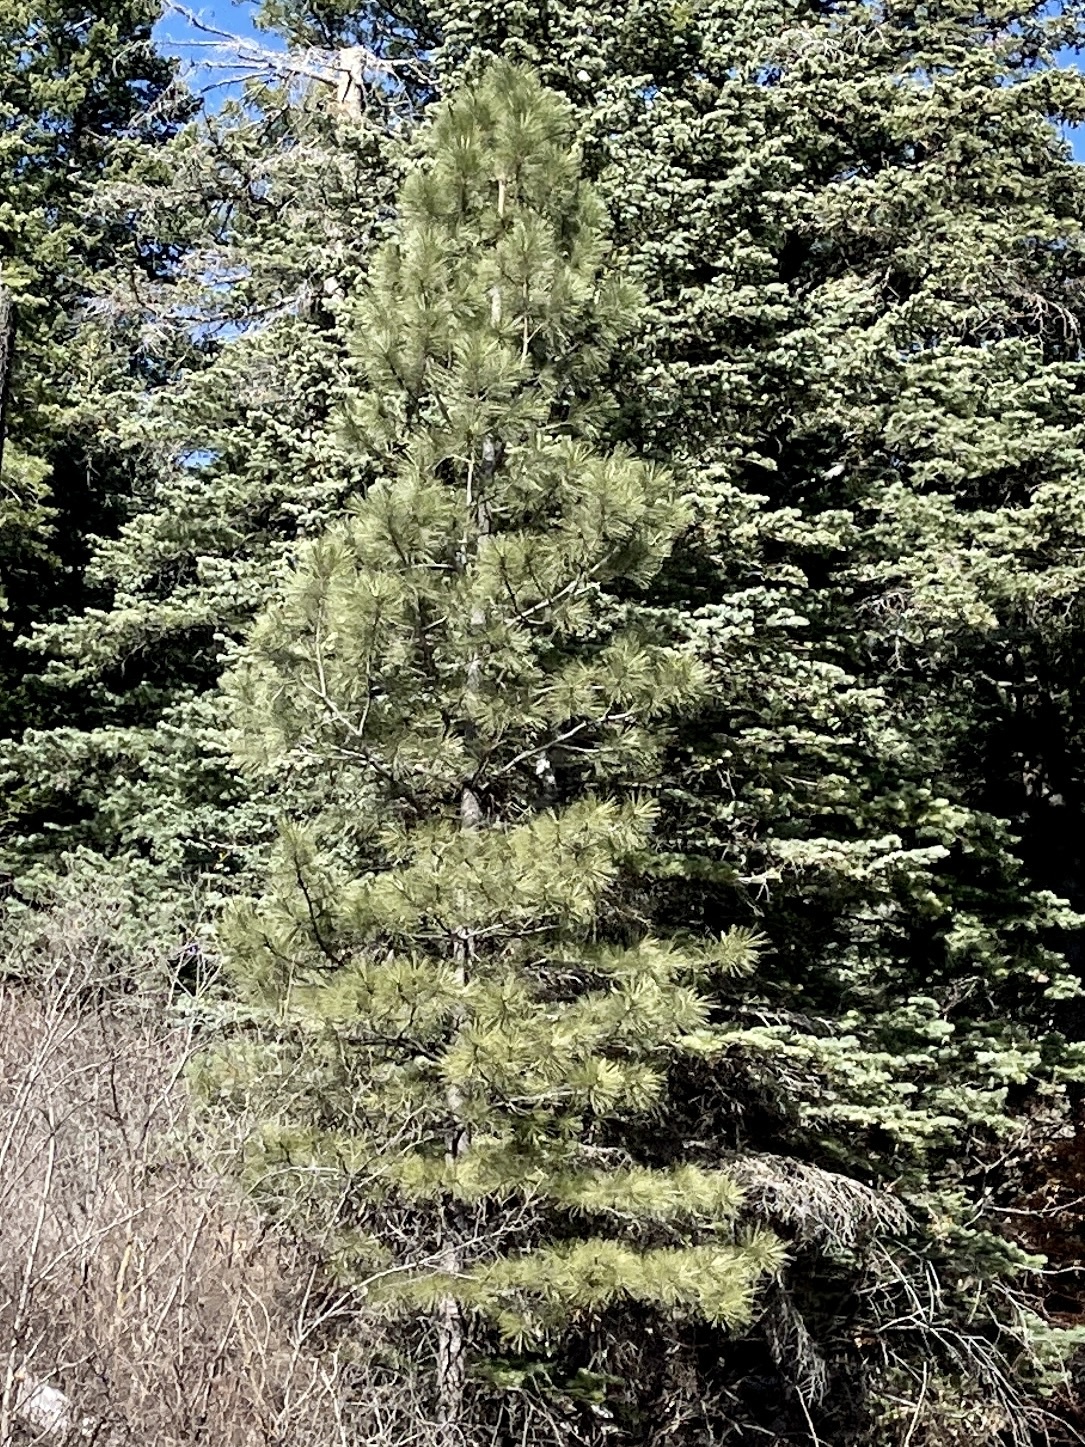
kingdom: Plantae
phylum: Tracheophyta
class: Pinopsida
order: Pinales
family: Pinaceae
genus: Pinus
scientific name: Pinus ponderosa
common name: Western yellow-pine
